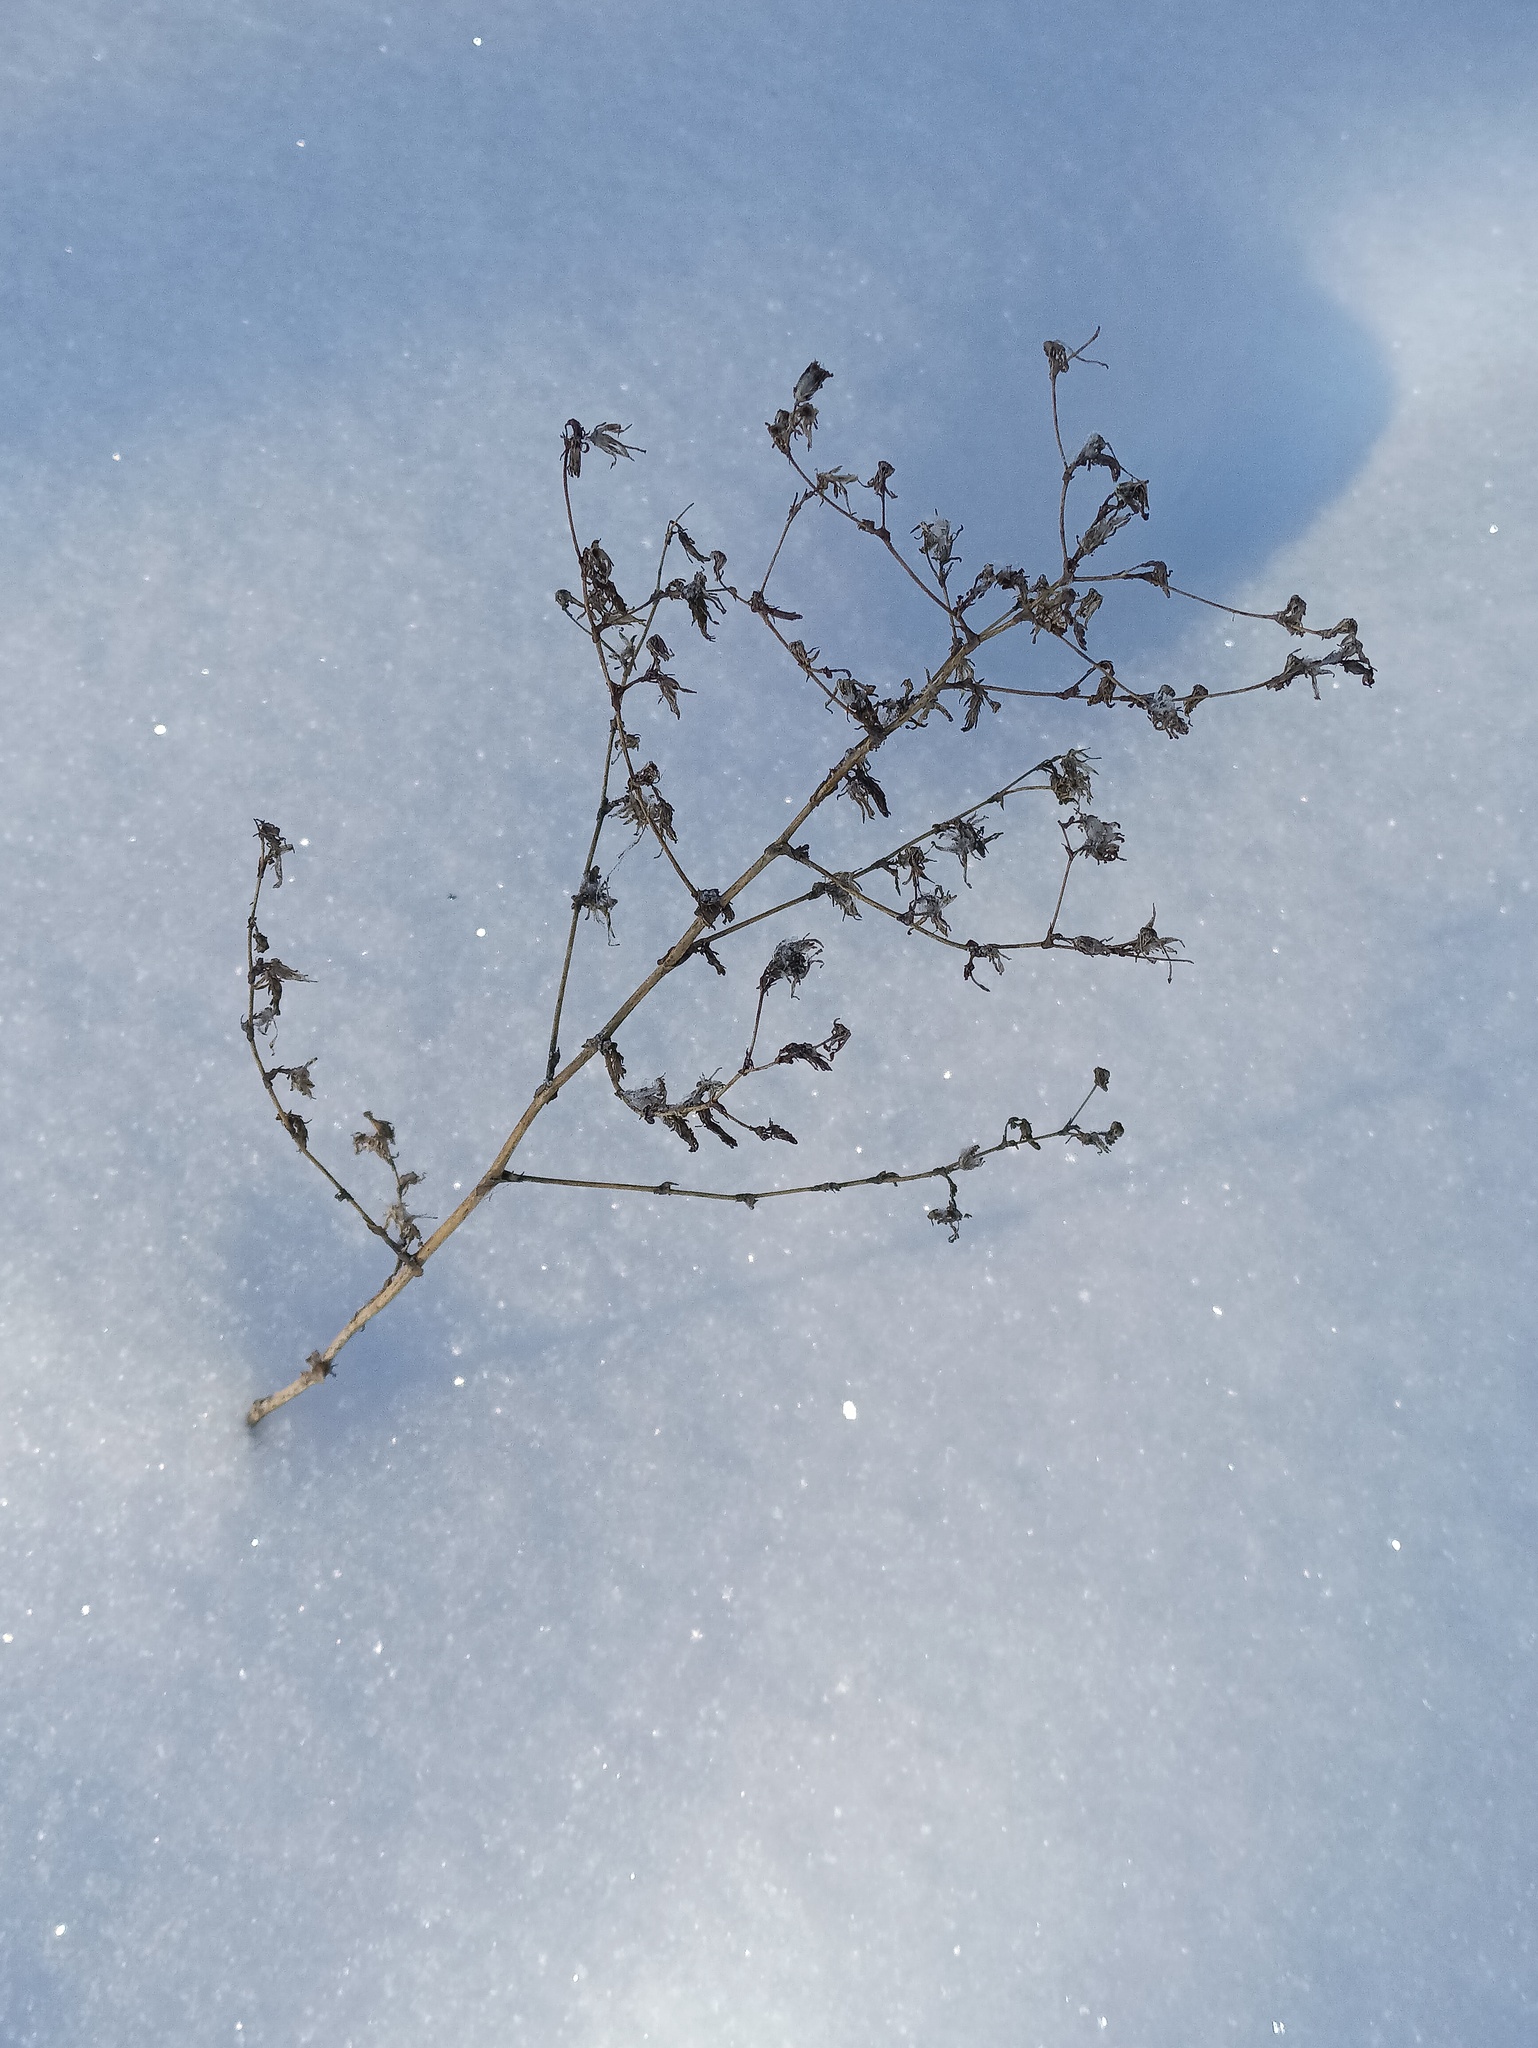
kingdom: Plantae
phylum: Tracheophyta
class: Magnoliopsida
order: Asterales
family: Asteraceae
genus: Lactuca
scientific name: Lactuca serriola
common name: Prickly lettuce
